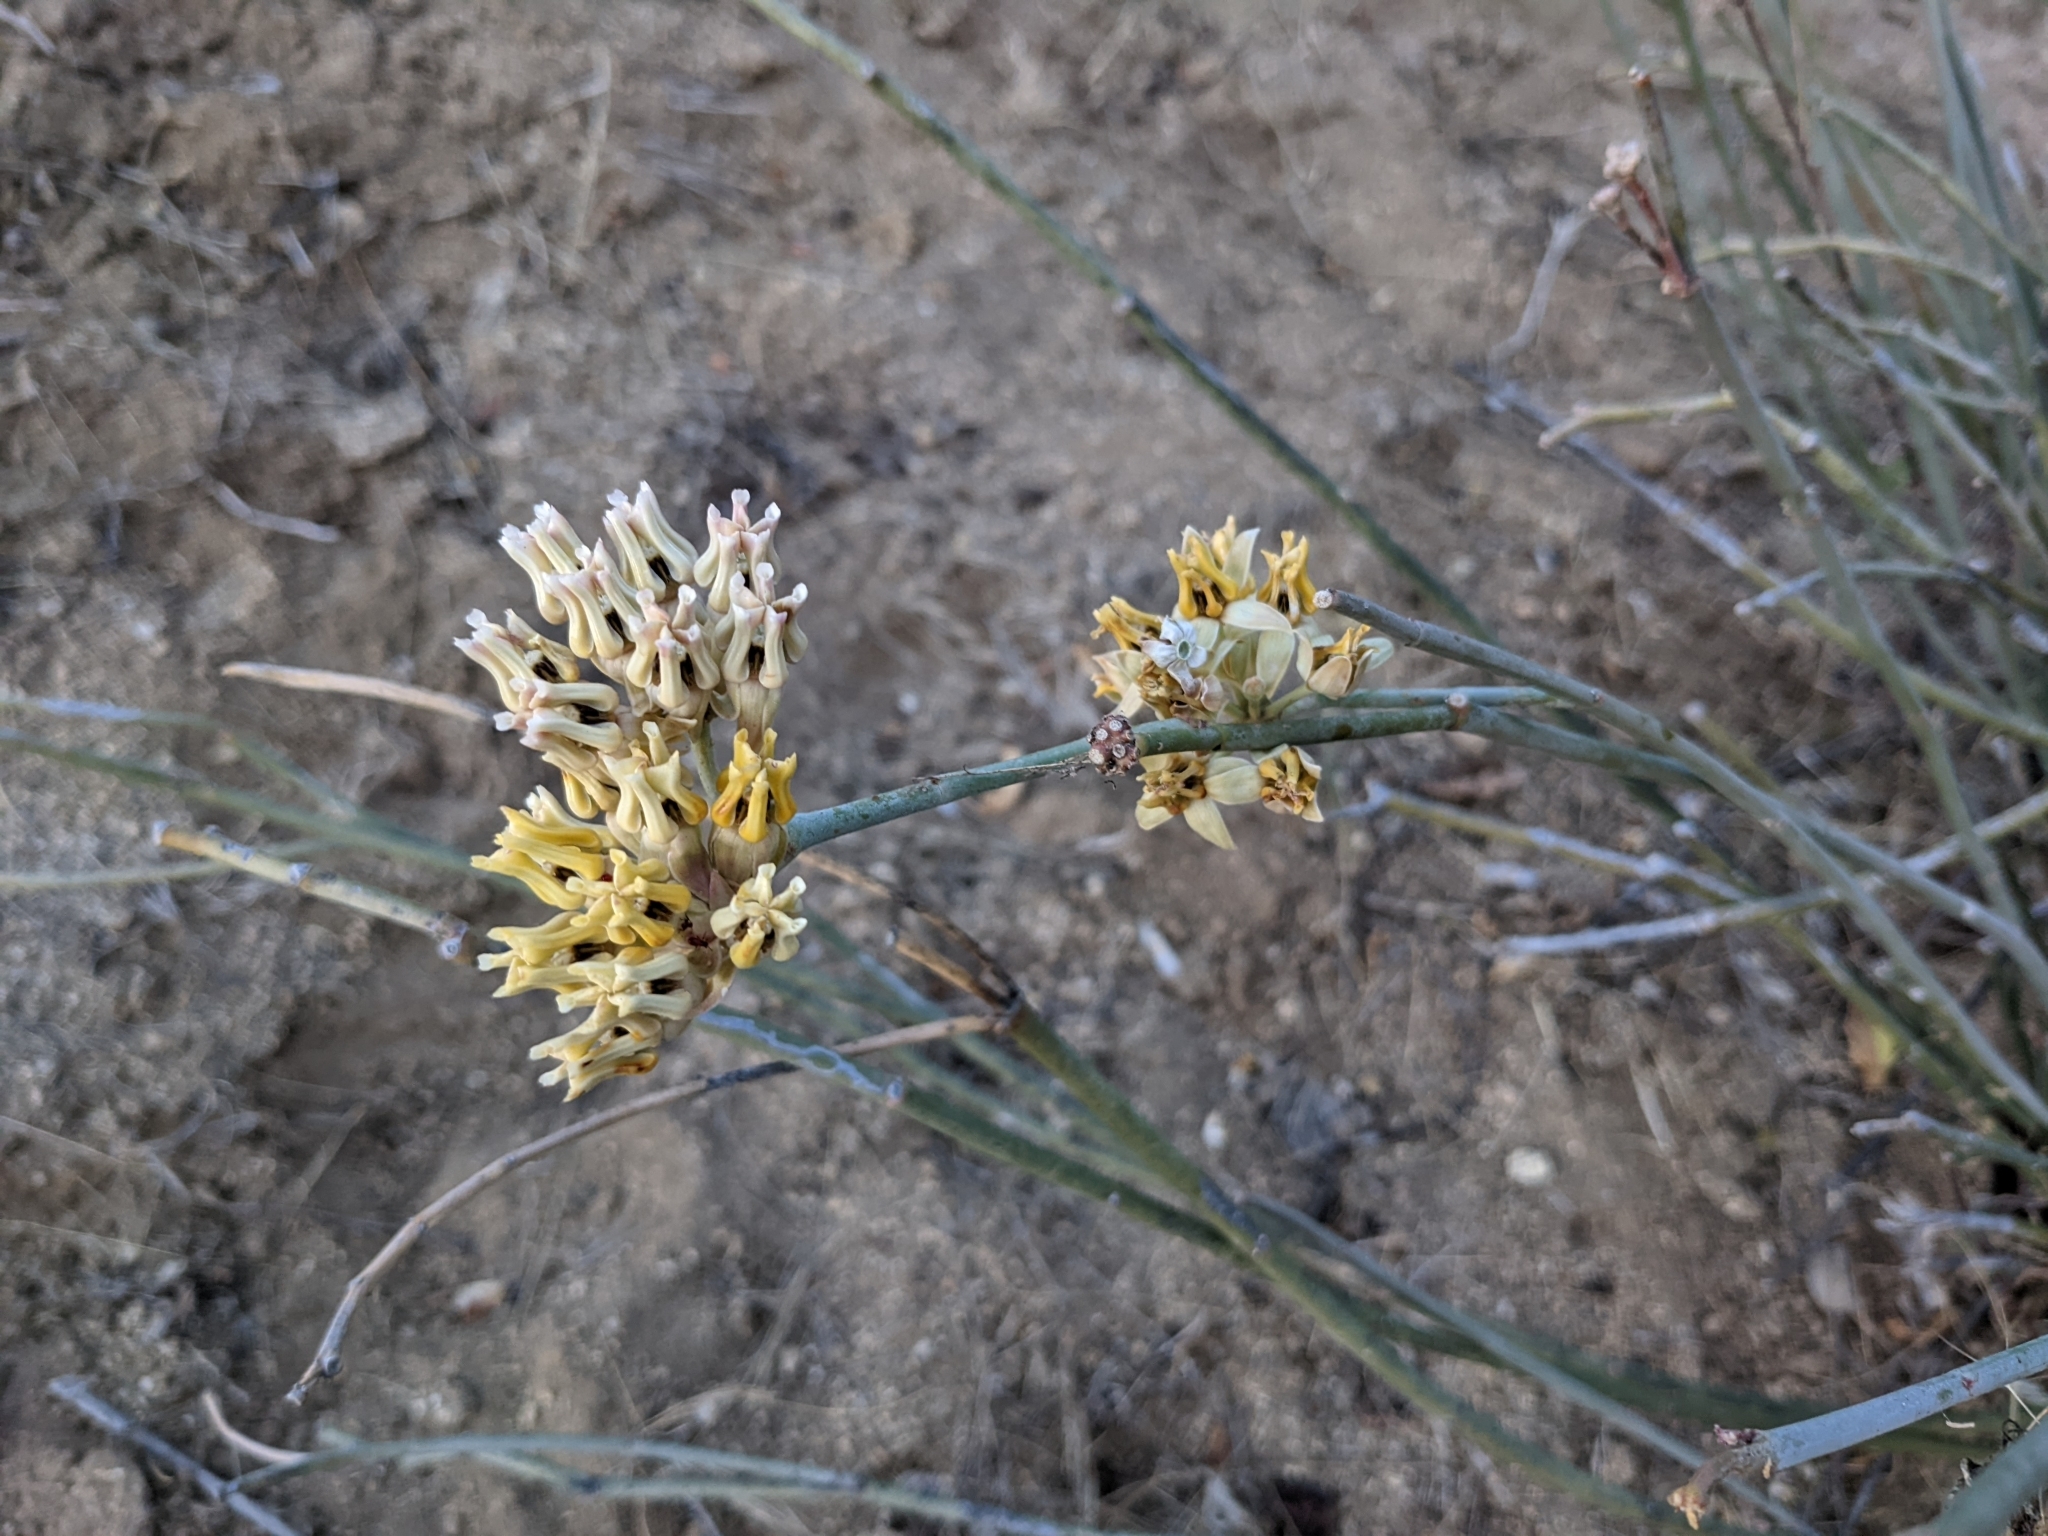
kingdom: Plantae
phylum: Tracheophyta
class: Magnoliopsida
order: Gentianales
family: Apocynaceae
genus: Asclepias
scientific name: Asclepias subulata
